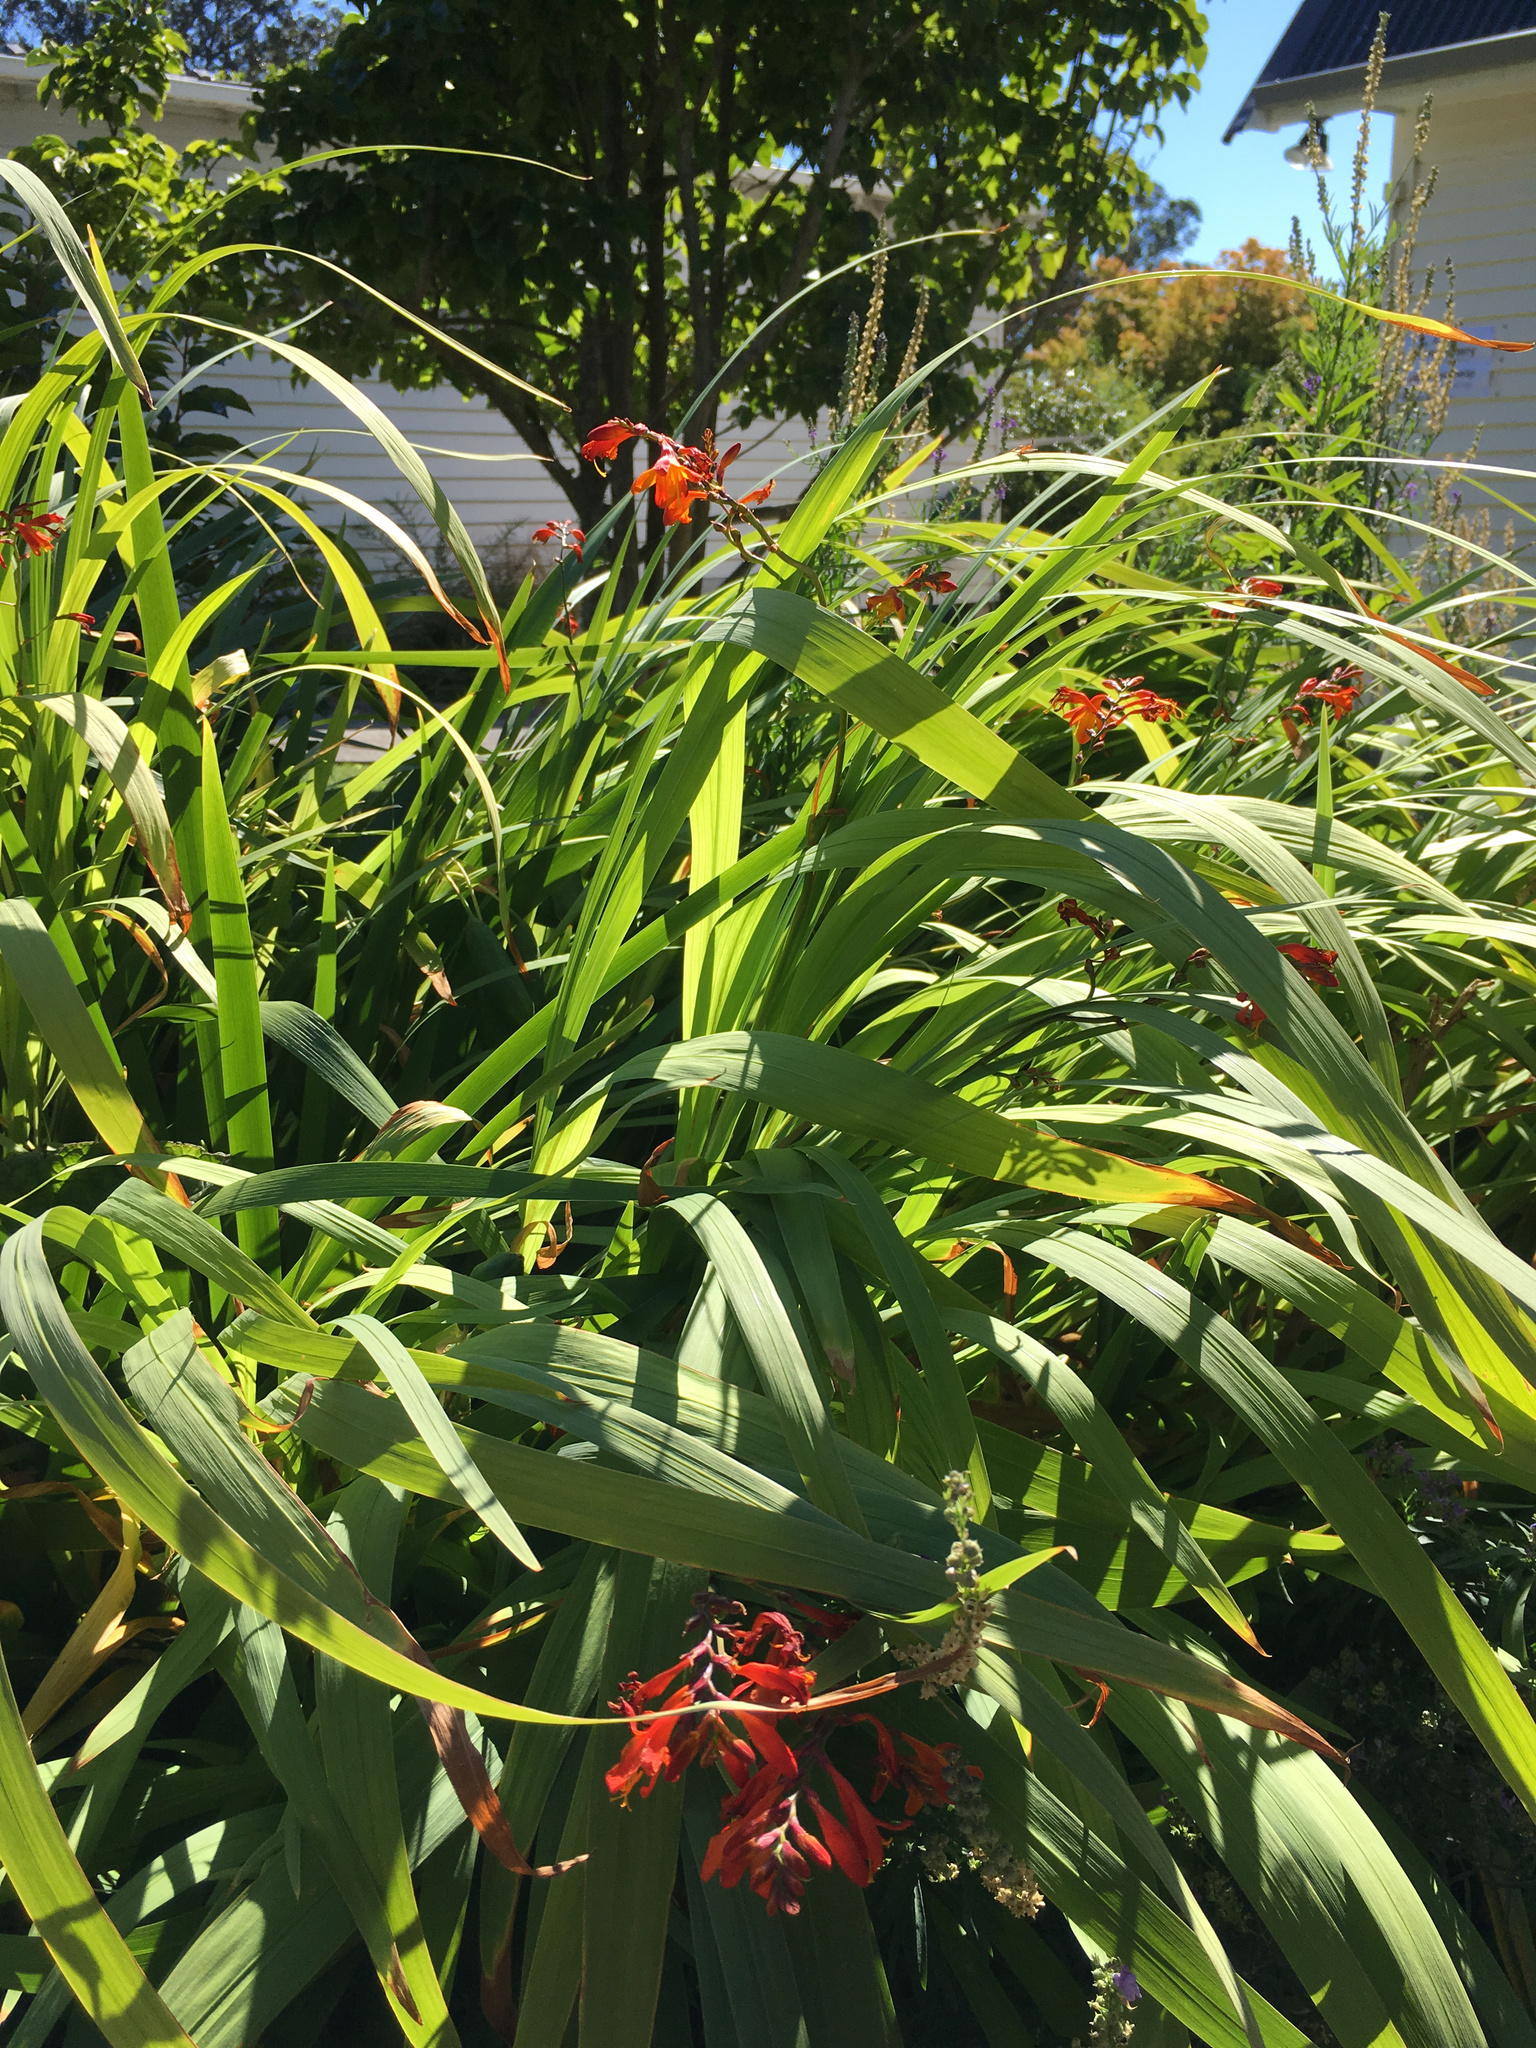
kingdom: Plantae
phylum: Tracheophyta
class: Liliopsida
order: Asparagales
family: Iridaceae
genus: Crocosmia
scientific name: Crocosmia crocosmiiflora
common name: Montbretia
